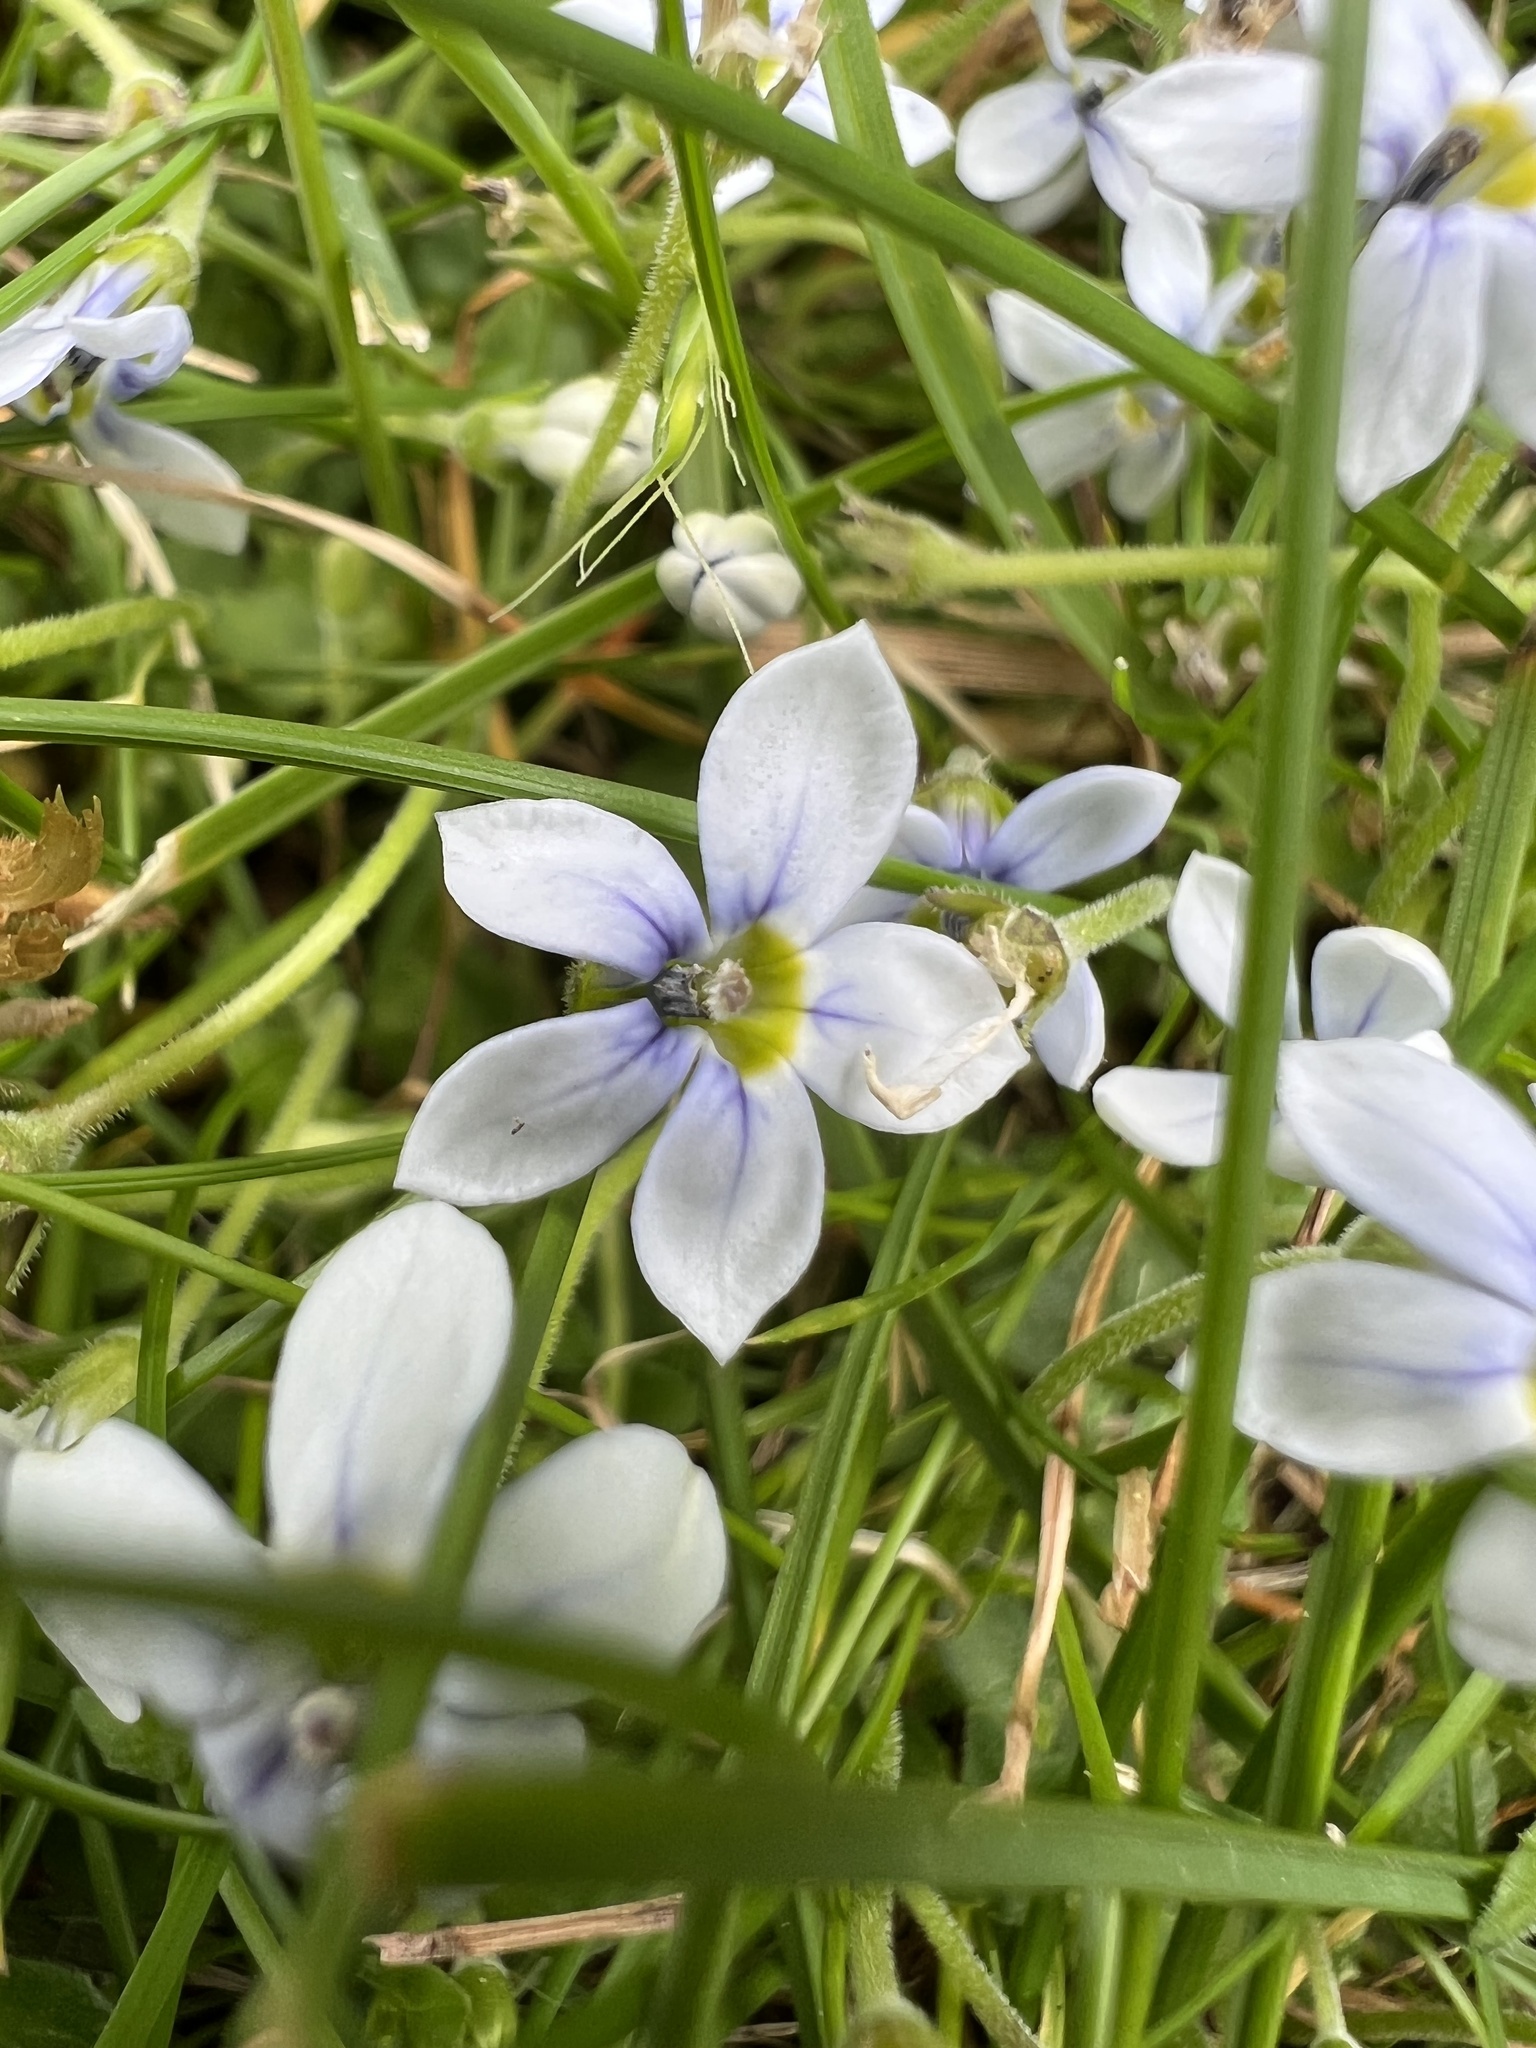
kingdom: Plantae
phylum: Tracheophyta
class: Magnoliopsida
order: Asterales
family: Campanulaceae
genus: Lobelia
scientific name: Lobelia pedunculata
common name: Matted pratia
